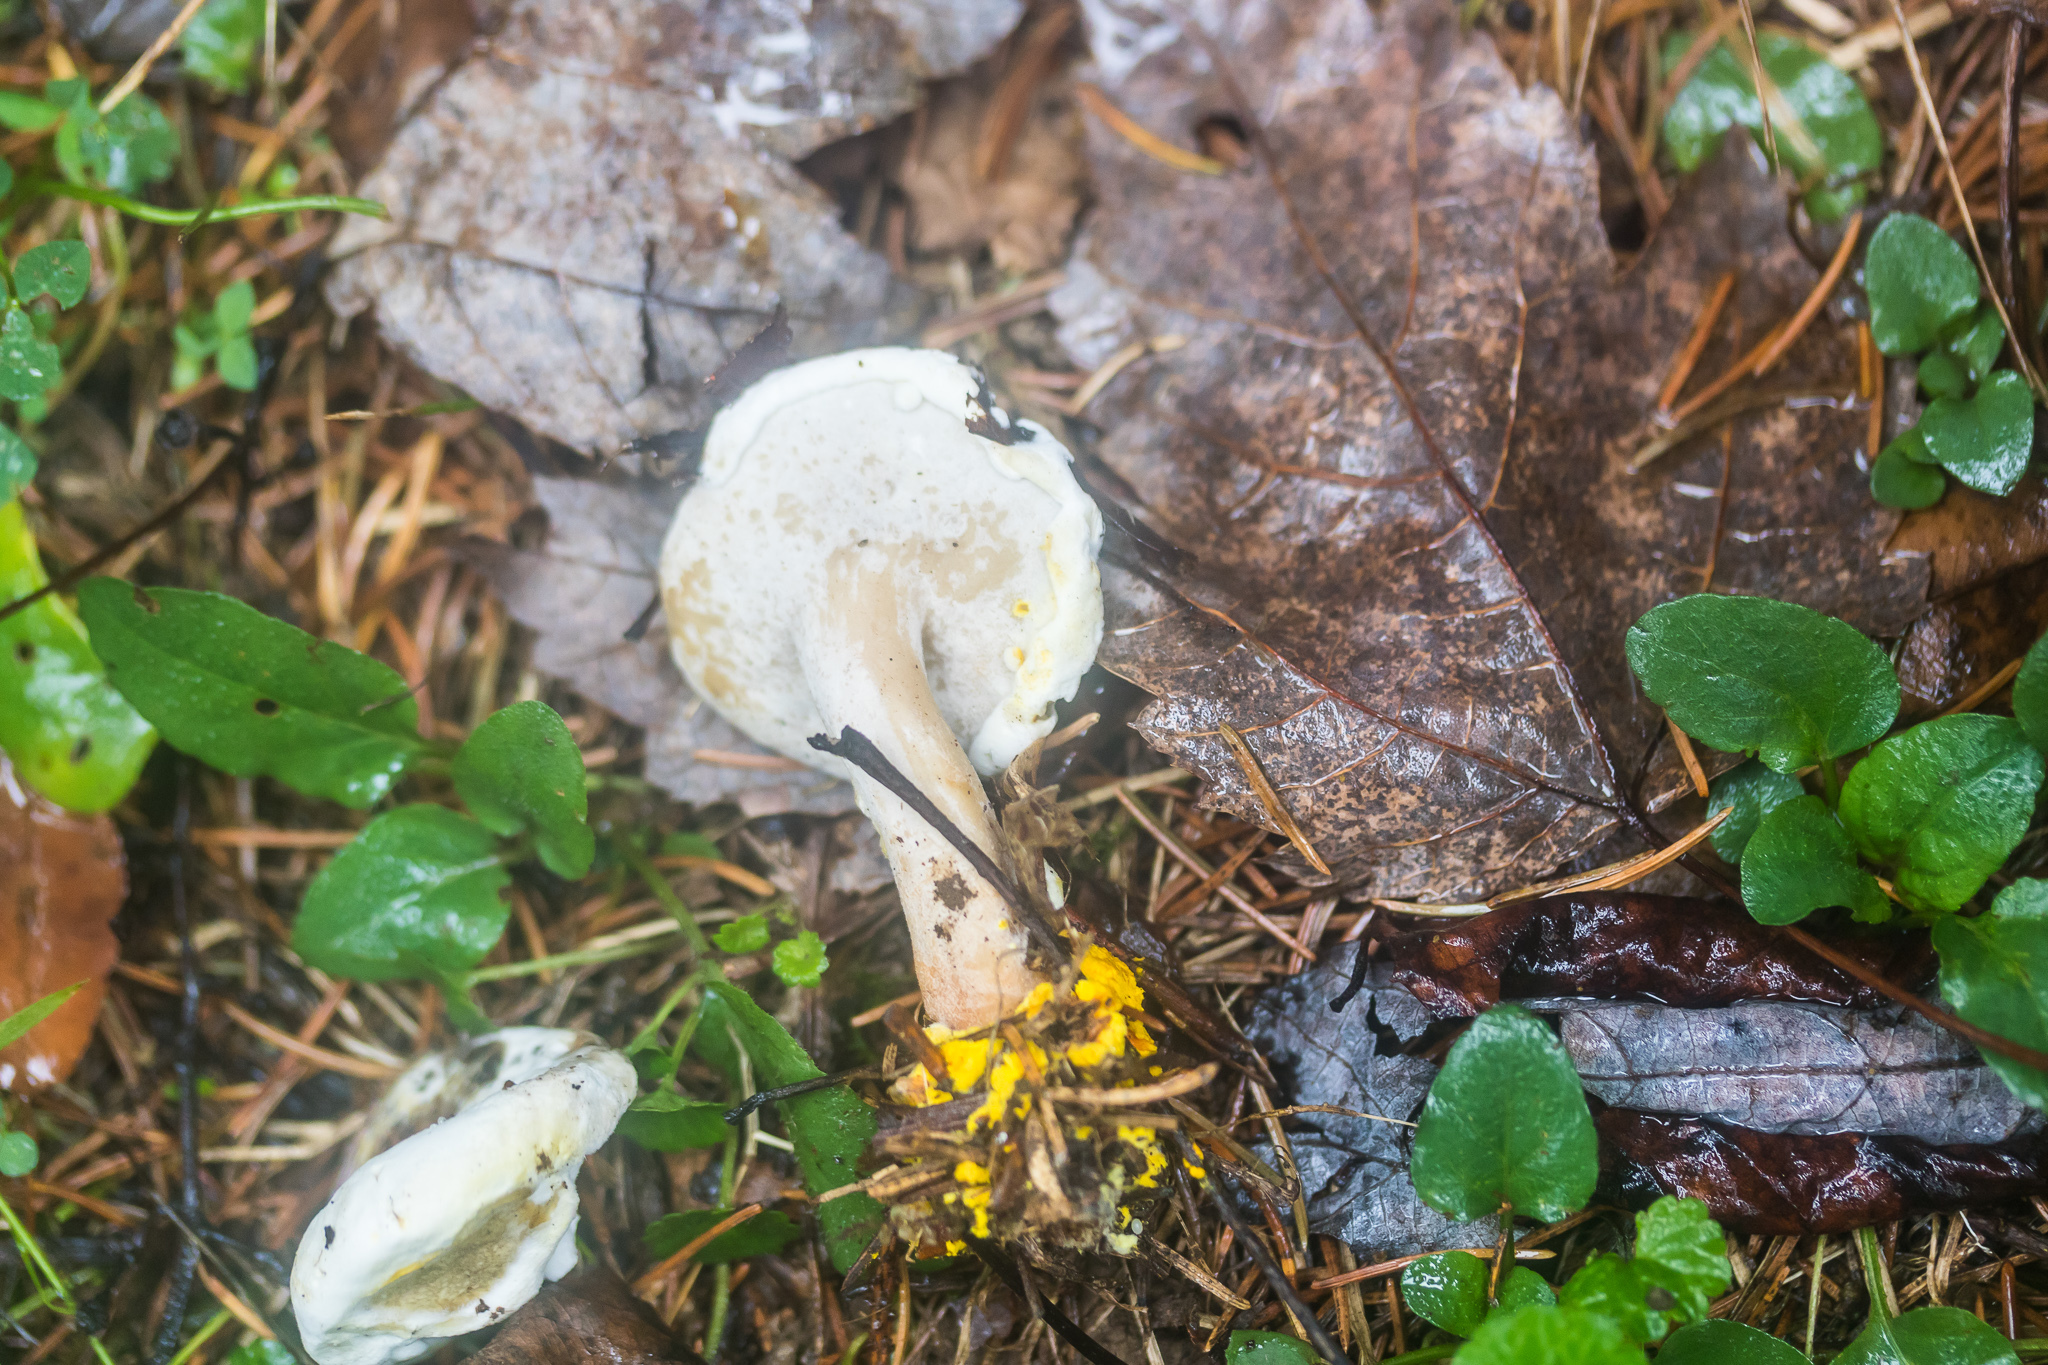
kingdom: Fungi
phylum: Ascomycota
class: Sordariomycetes
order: Hypocreales
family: Hypocreaceae
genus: Hypomyces
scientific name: Hypomyces chrysospermus
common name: Bolete mould
